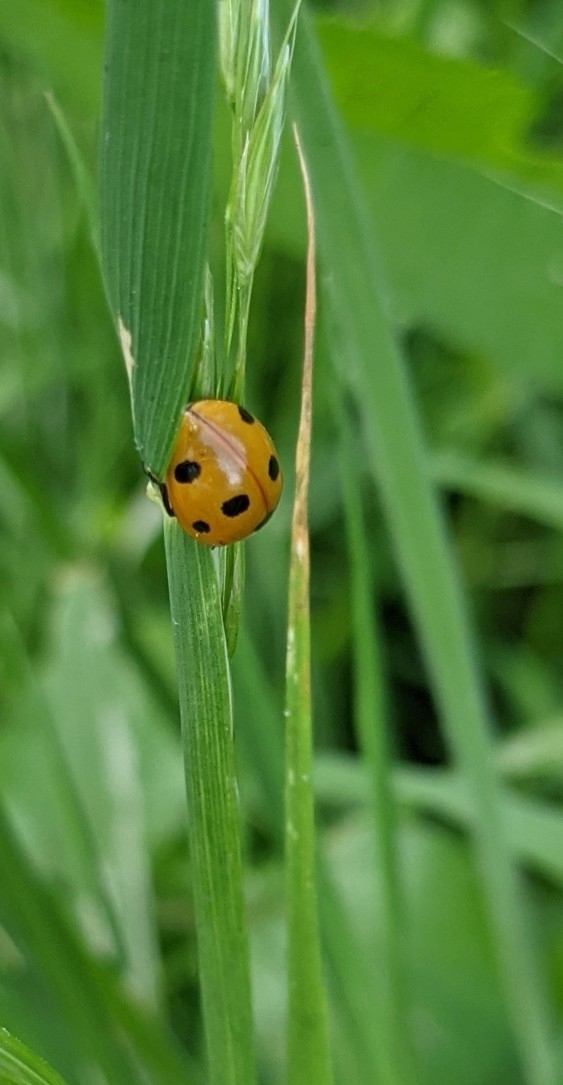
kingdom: Animalia
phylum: Arthropoda
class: Insecta
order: Coleoptera
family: Coccinellidae
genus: Coccinella
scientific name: Coccinella septempunctata
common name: Sevenspotted lady beetle
